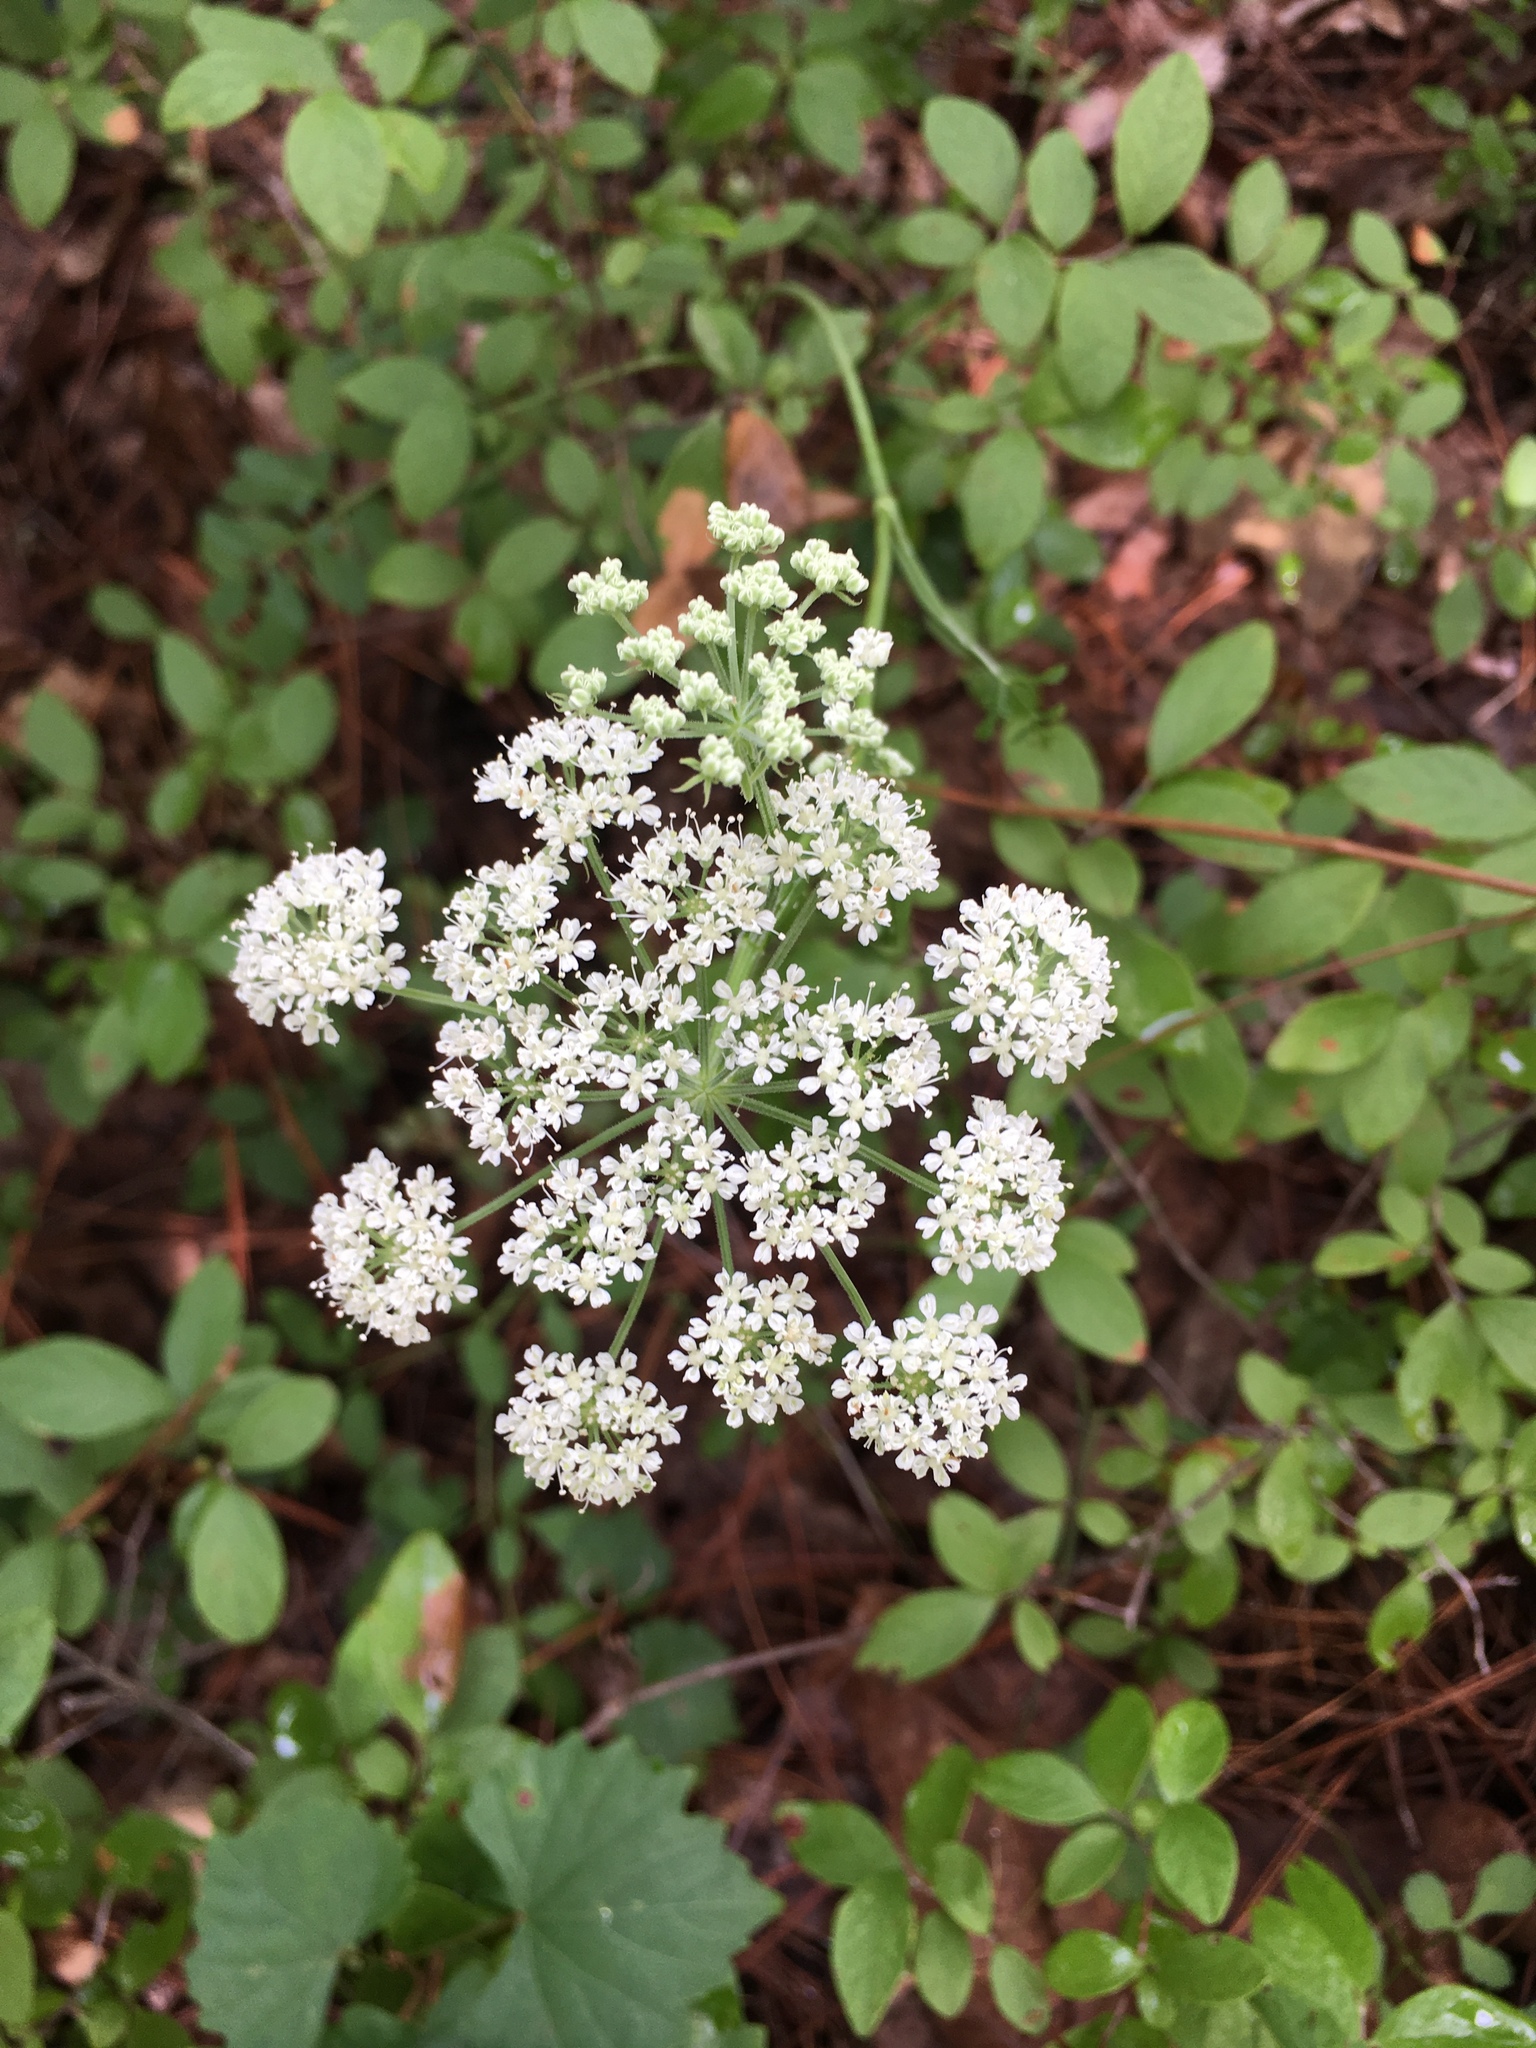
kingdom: Plantae
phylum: Tracheophyta
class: Magnoliopsida
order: Apiales
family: Apiaceae
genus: Angelica
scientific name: Angelica venenosa
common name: Hairy angelica
